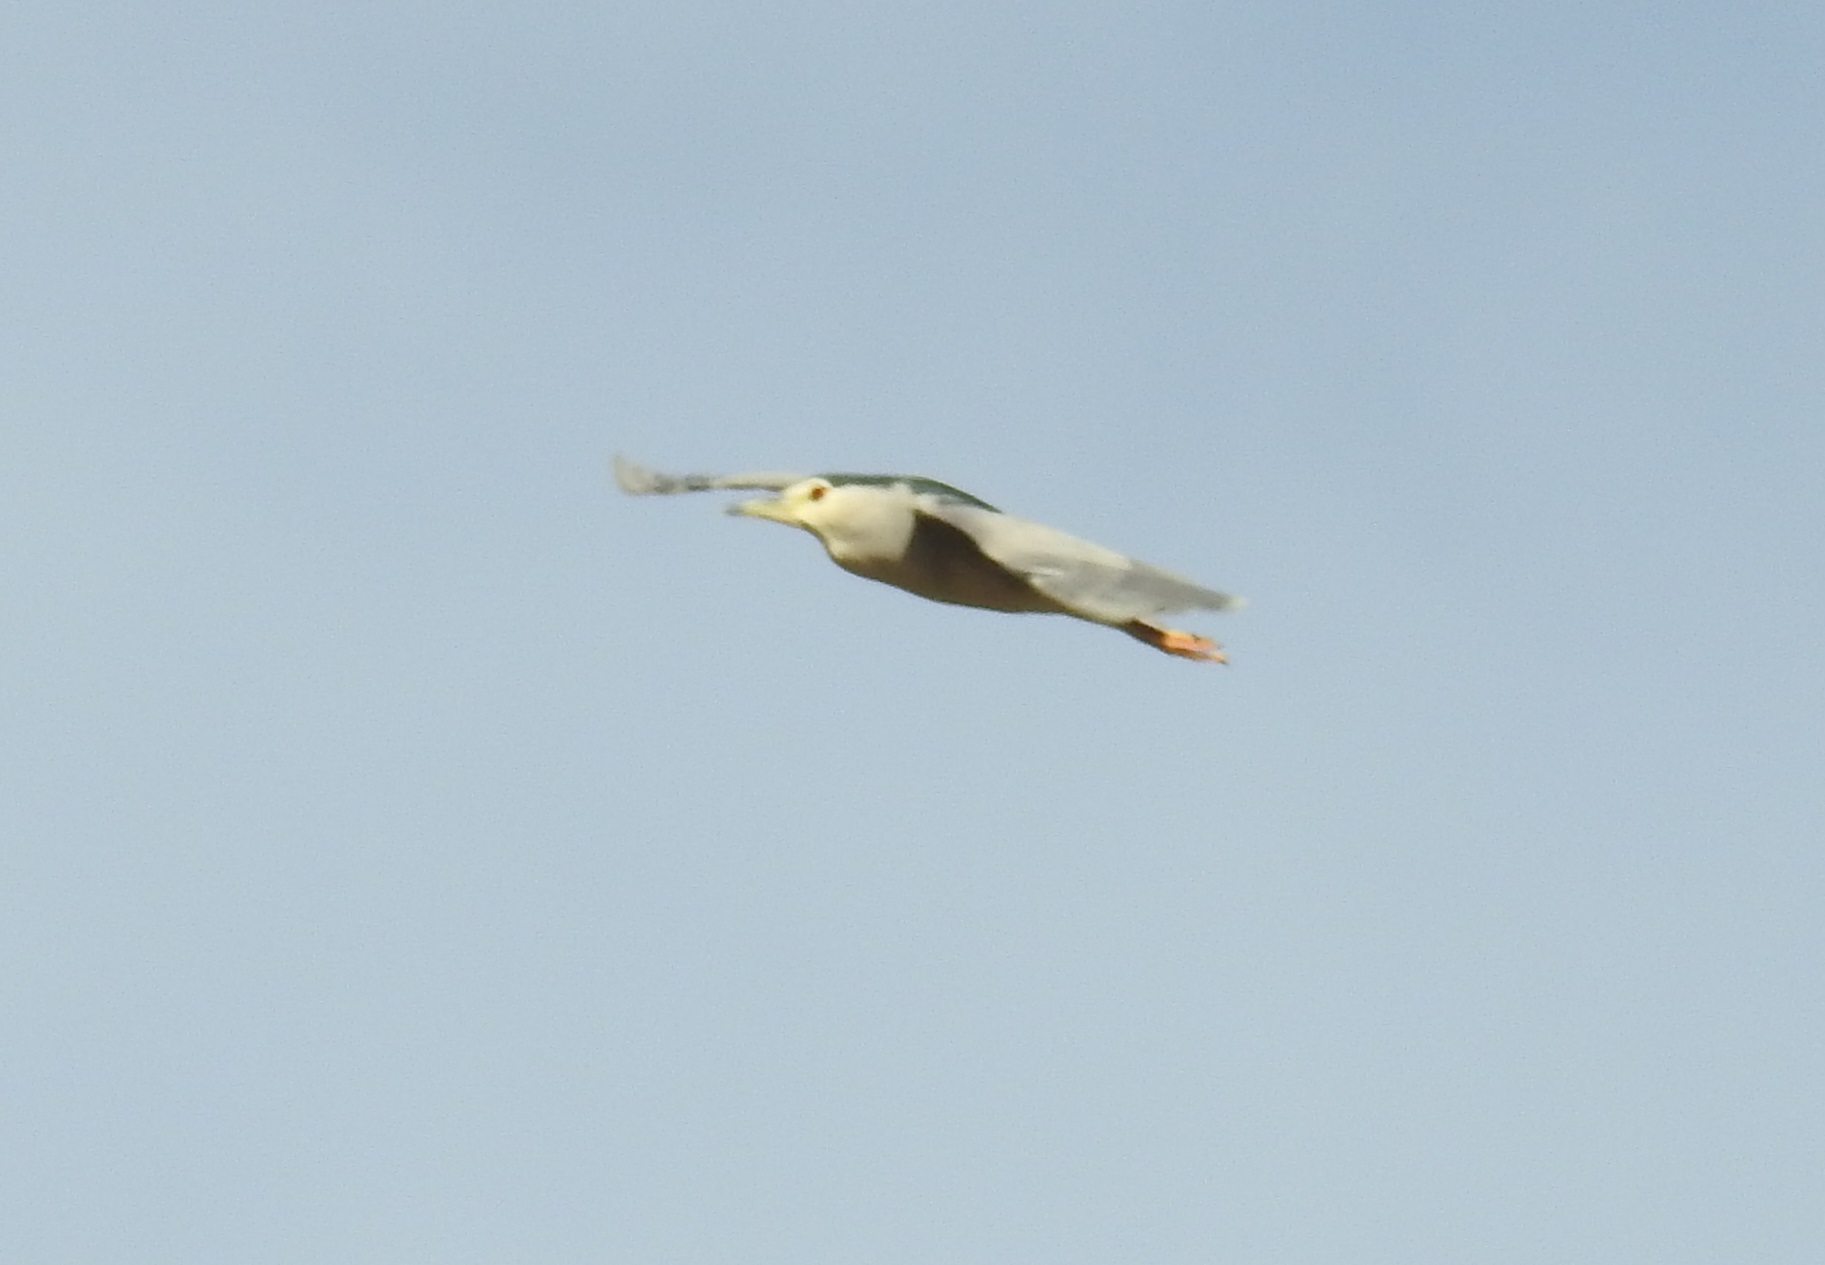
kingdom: Animalia
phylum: Chordata
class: Aves
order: Pelecaniformes
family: Ardeidae
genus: Nycticorax
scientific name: Nycticorax nycticorax
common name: Black-crowned night heron
